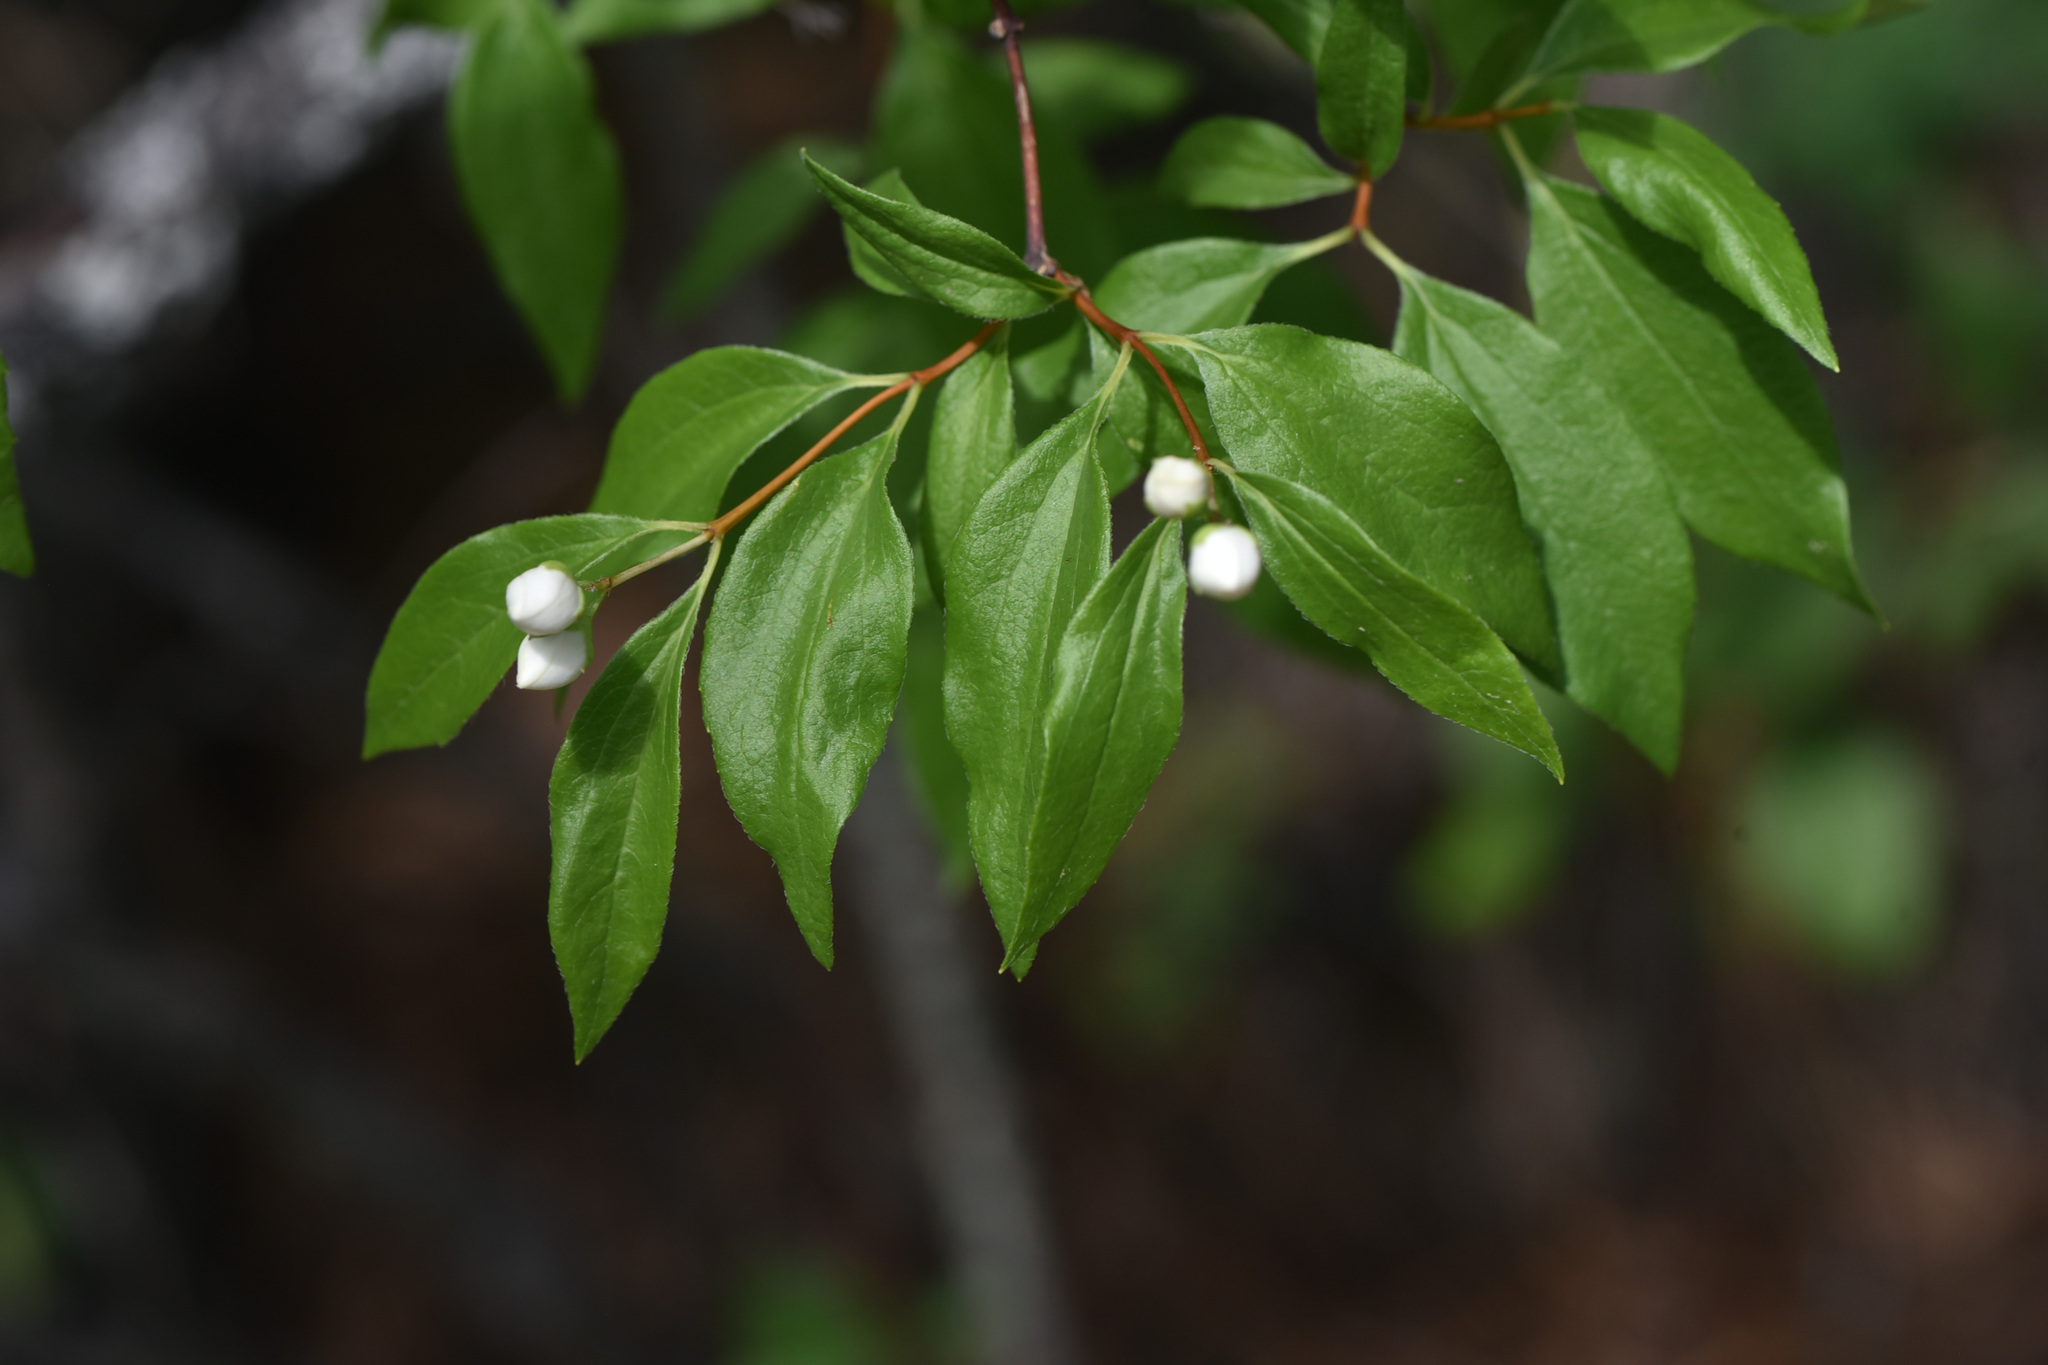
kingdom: Plantae
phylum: Tracheophyta
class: Magnoliopsida
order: Cornales
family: Hydrangeaceae
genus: Philadelphus
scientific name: Philadelphus lewisii
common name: Lewis's mock orange
